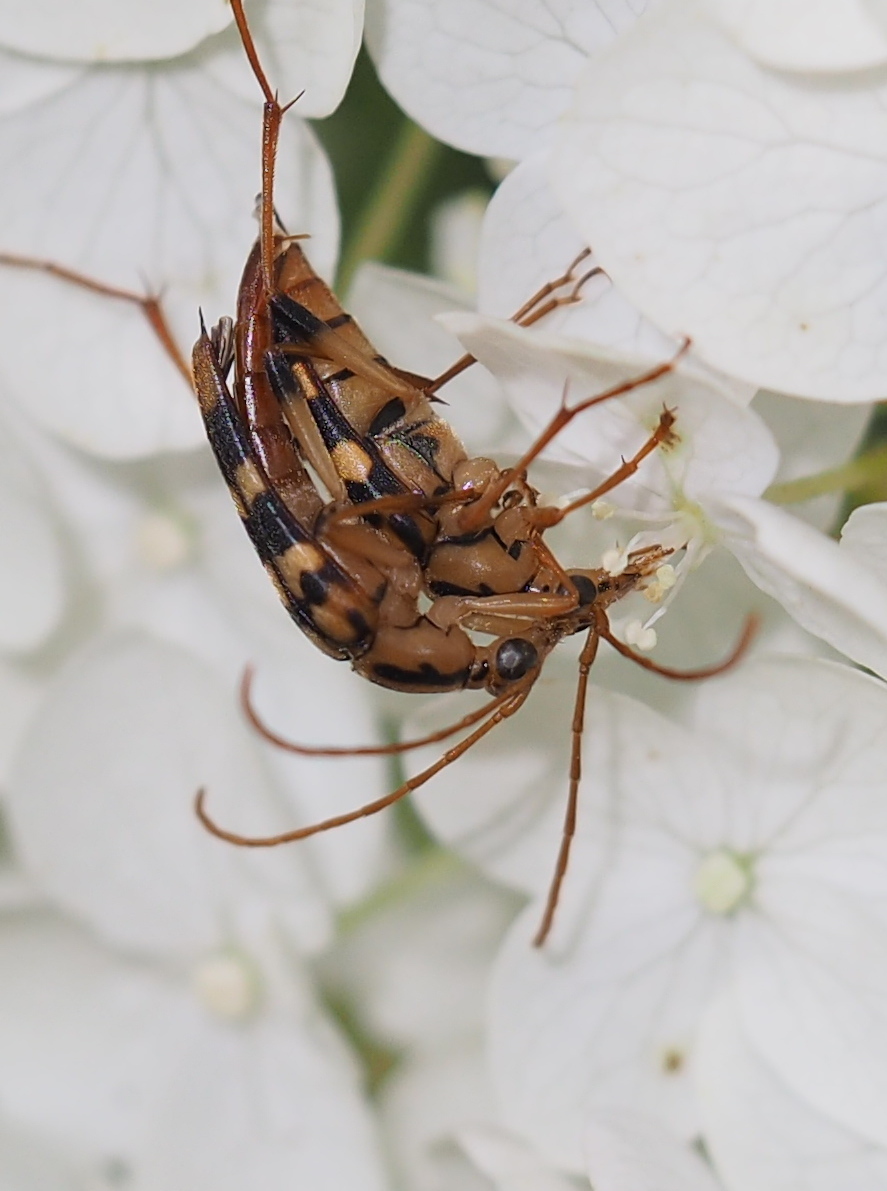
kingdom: Animalia
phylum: Arthropoda
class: Insecta
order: Coleoptera
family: Cerambycidae
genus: Strangalia
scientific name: Strangalia luteicornis
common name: Yellow-horned flower longhorn beetle
